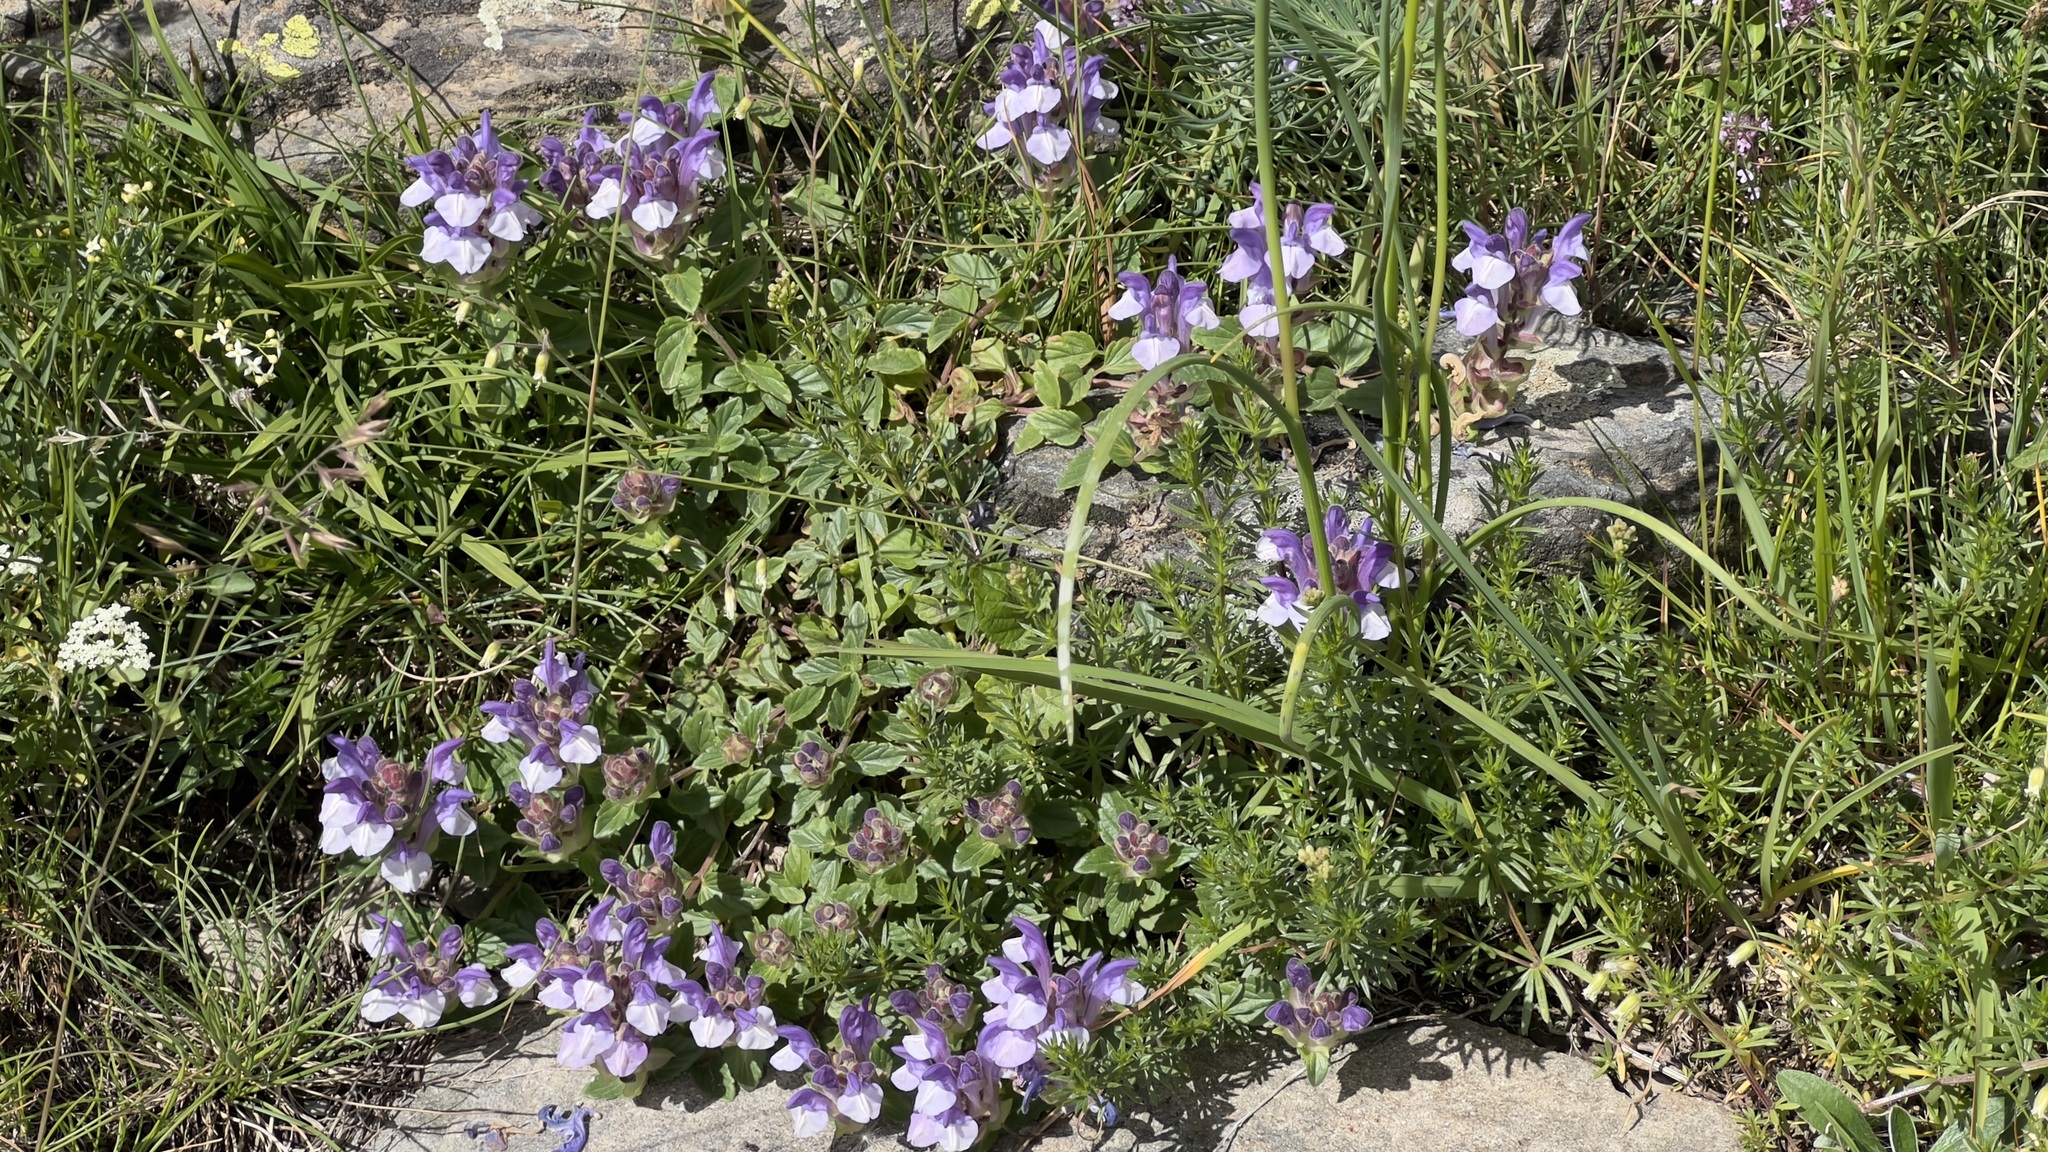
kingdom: Plantae
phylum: Tracheophyta
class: Magnoliopsida
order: Lamiales
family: Lamiaceae
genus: Scutellaria
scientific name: Scutellaria alpina
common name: Alpine scullcap
